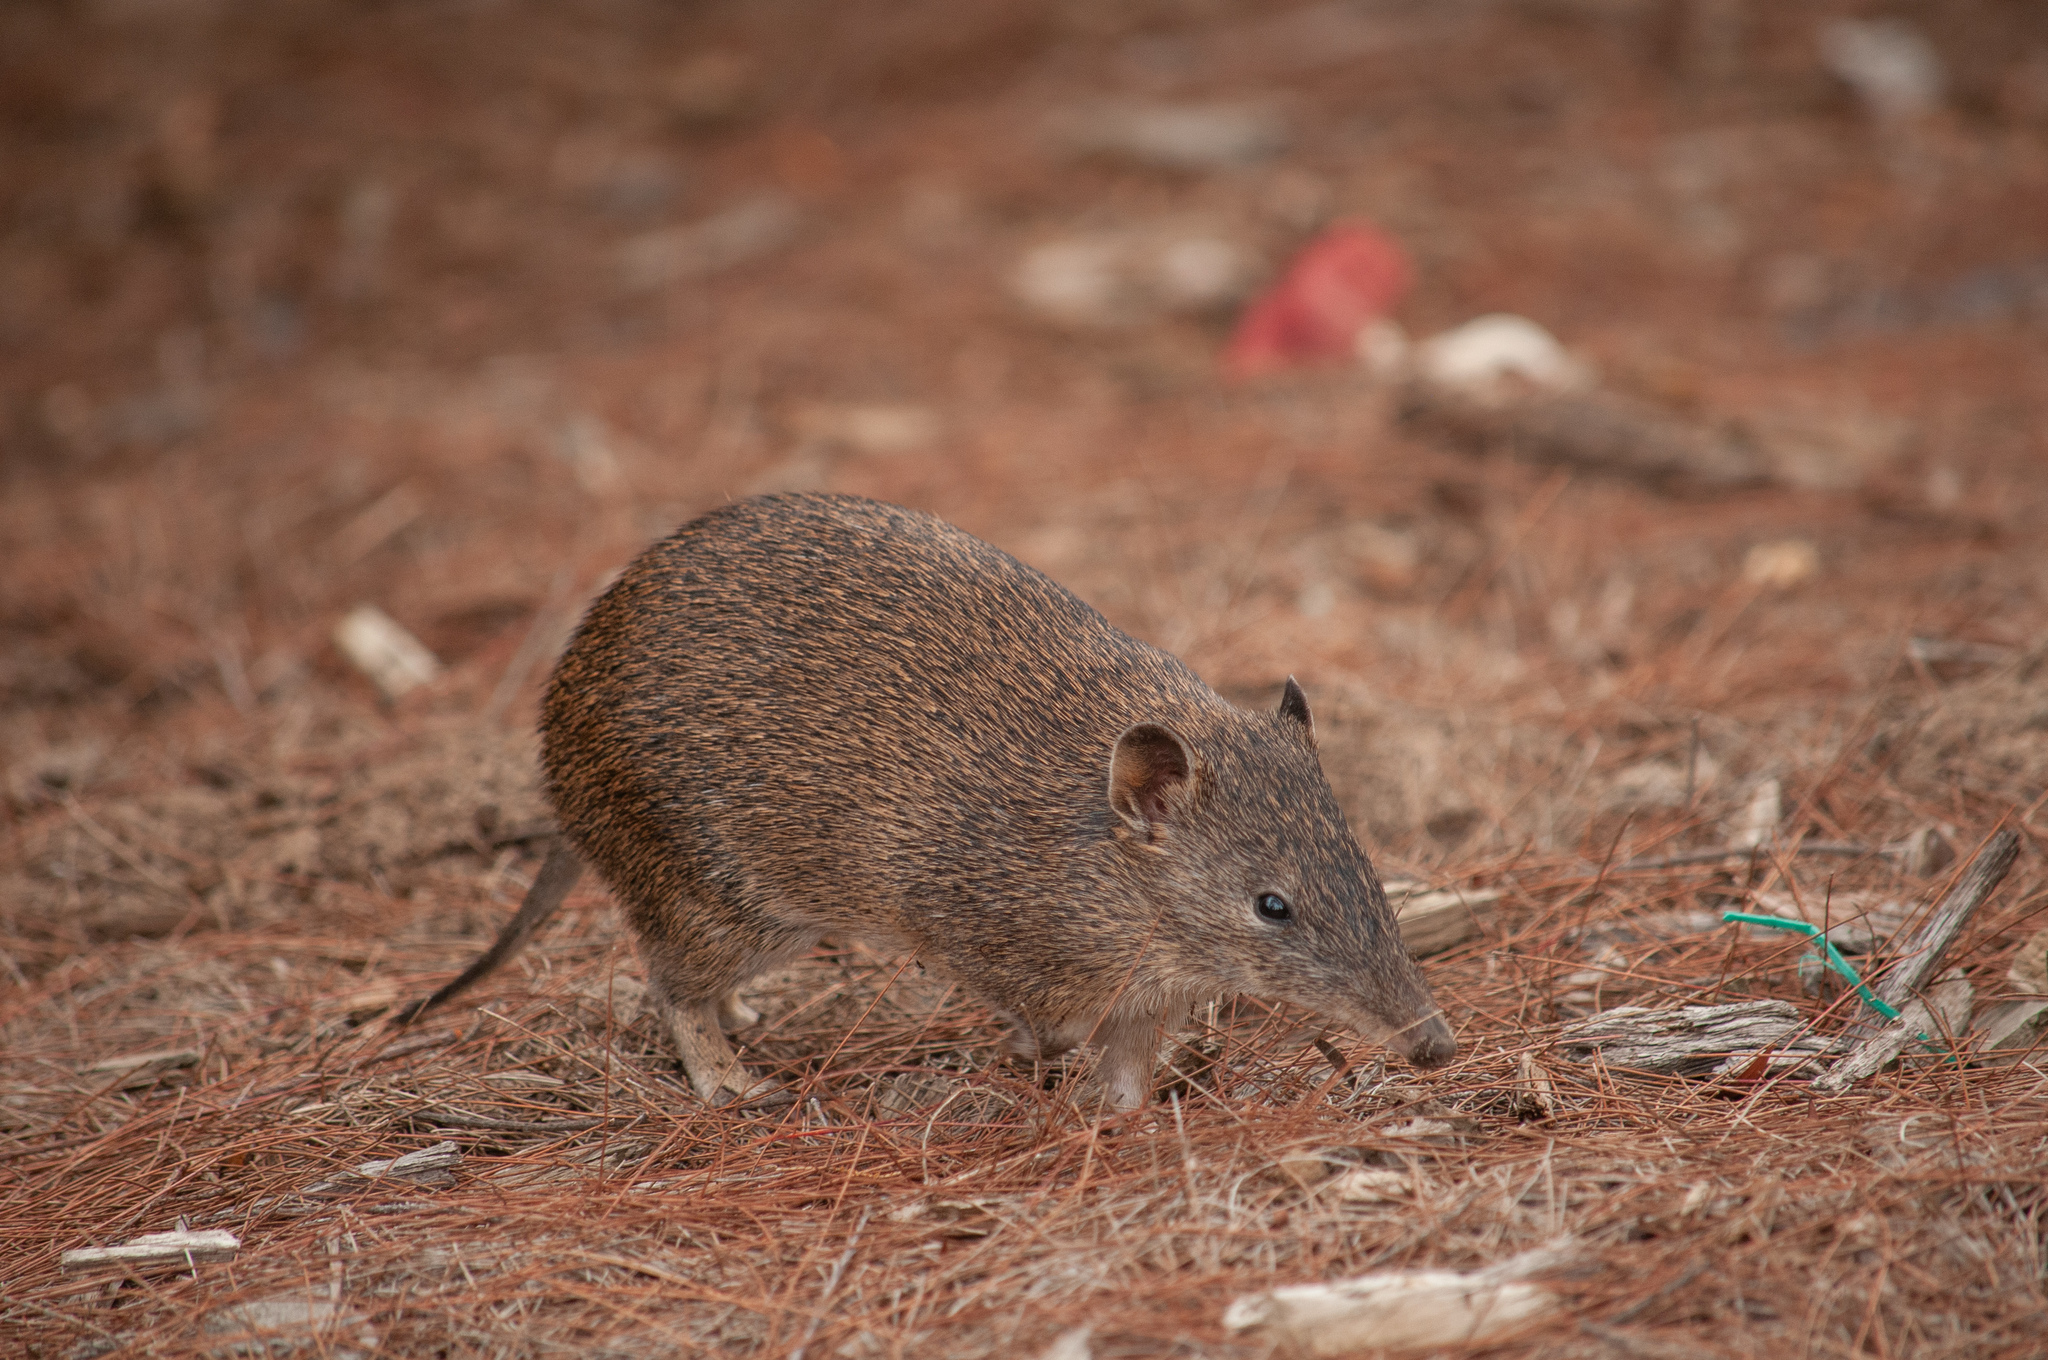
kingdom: Animalia
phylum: Chordata
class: Mammalia
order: Peramelemorphia
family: Peramelidae
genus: Isoodon
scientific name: Isoodon obesulus
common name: Southern brown bandicoot
